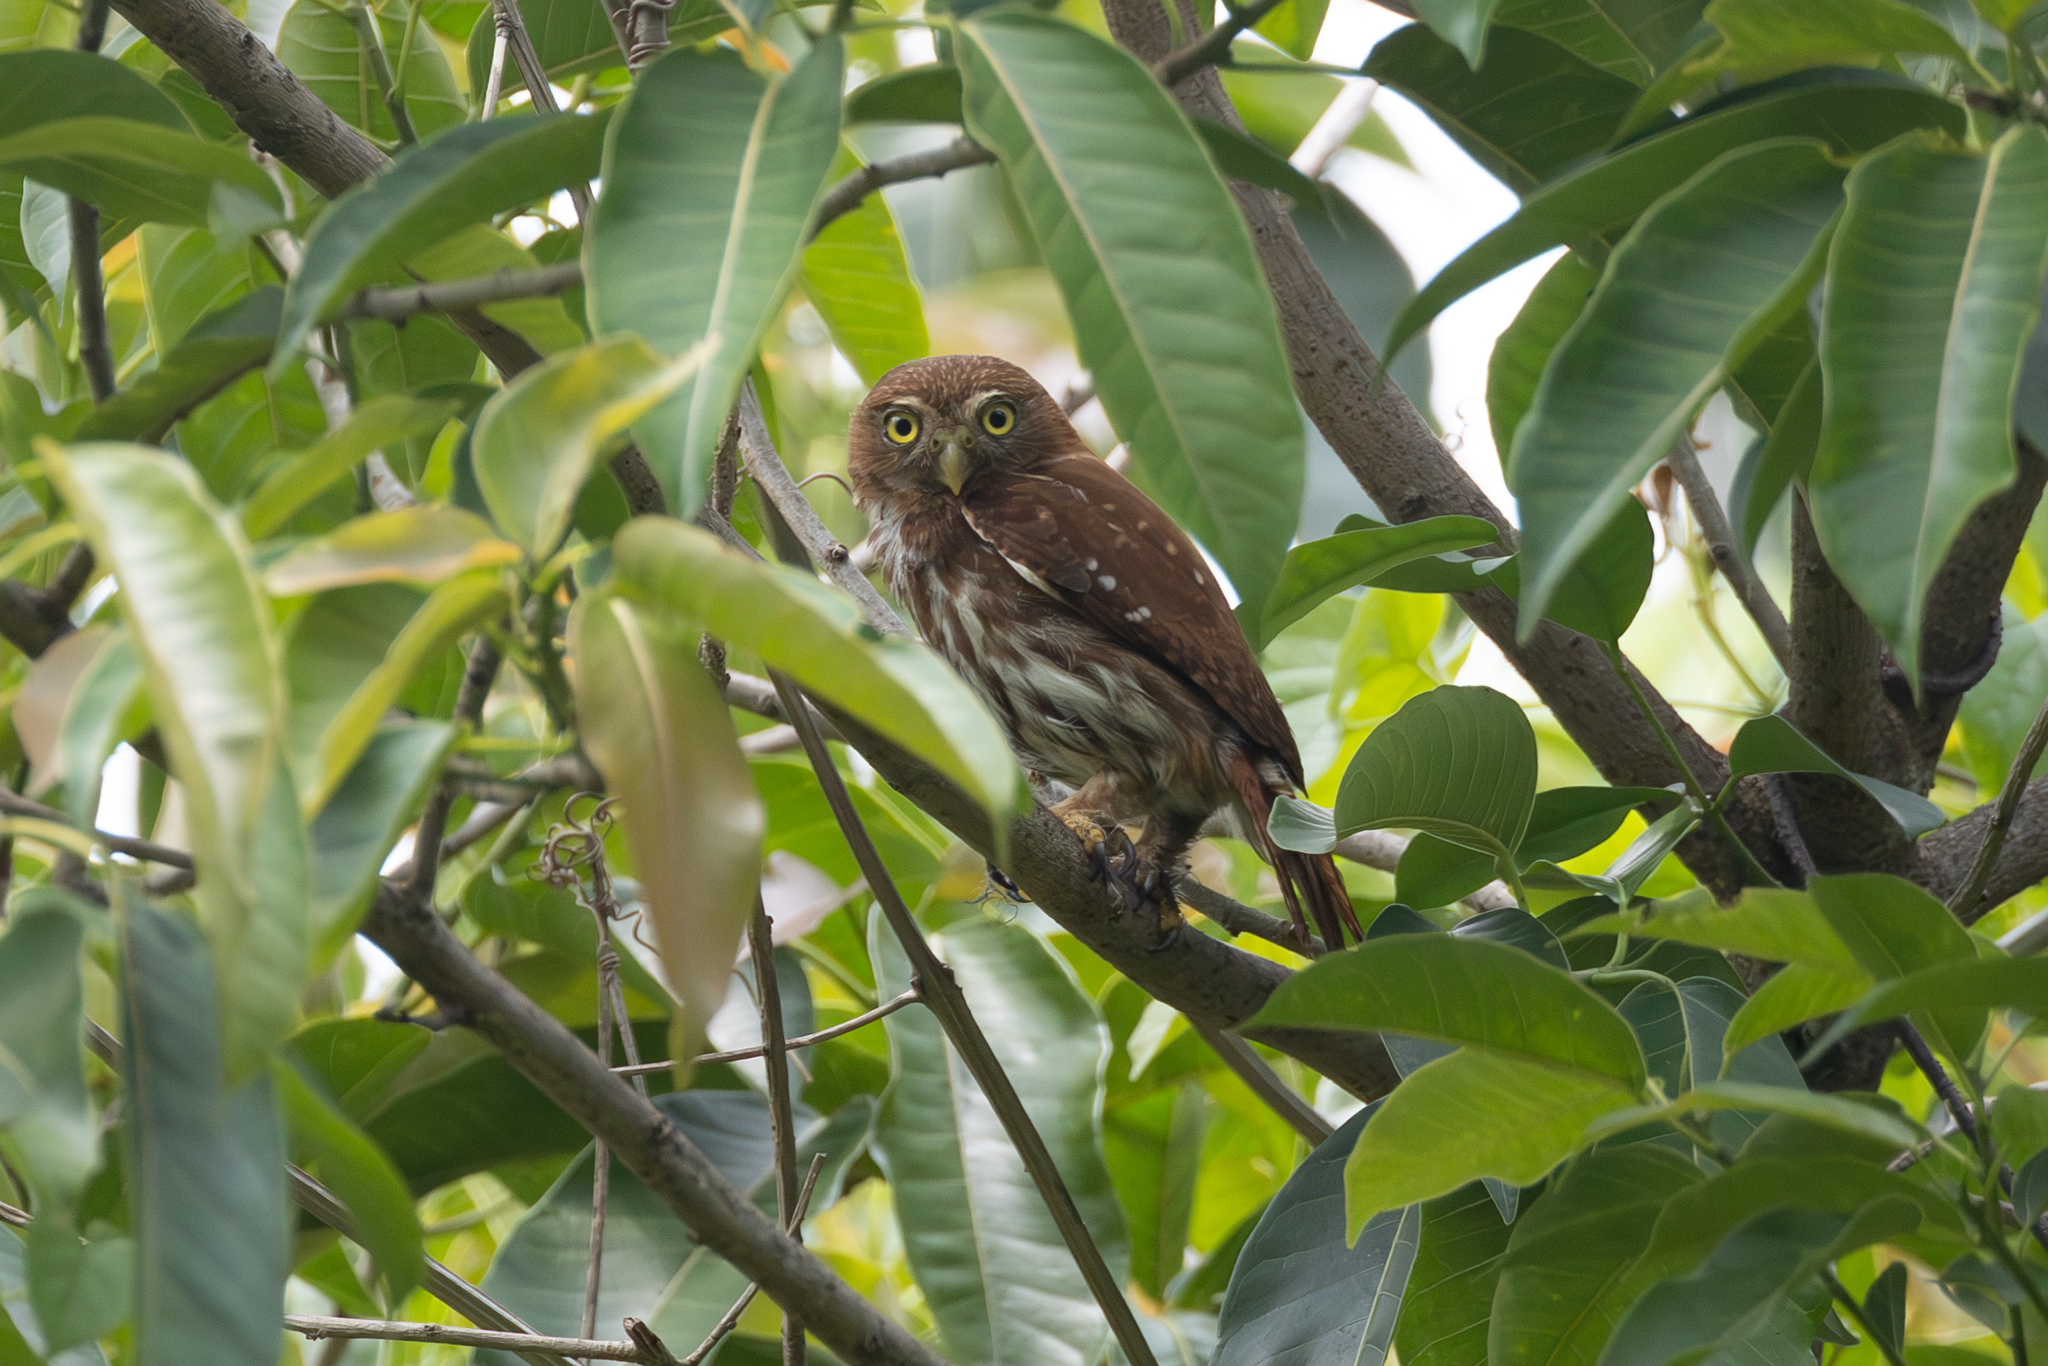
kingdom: Animalia
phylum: Chordata
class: Aves
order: Strigiformes
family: Strigidae
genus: Glaucidium
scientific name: Glaucidium brasilianum
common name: Ferruginous pygmy-owl
